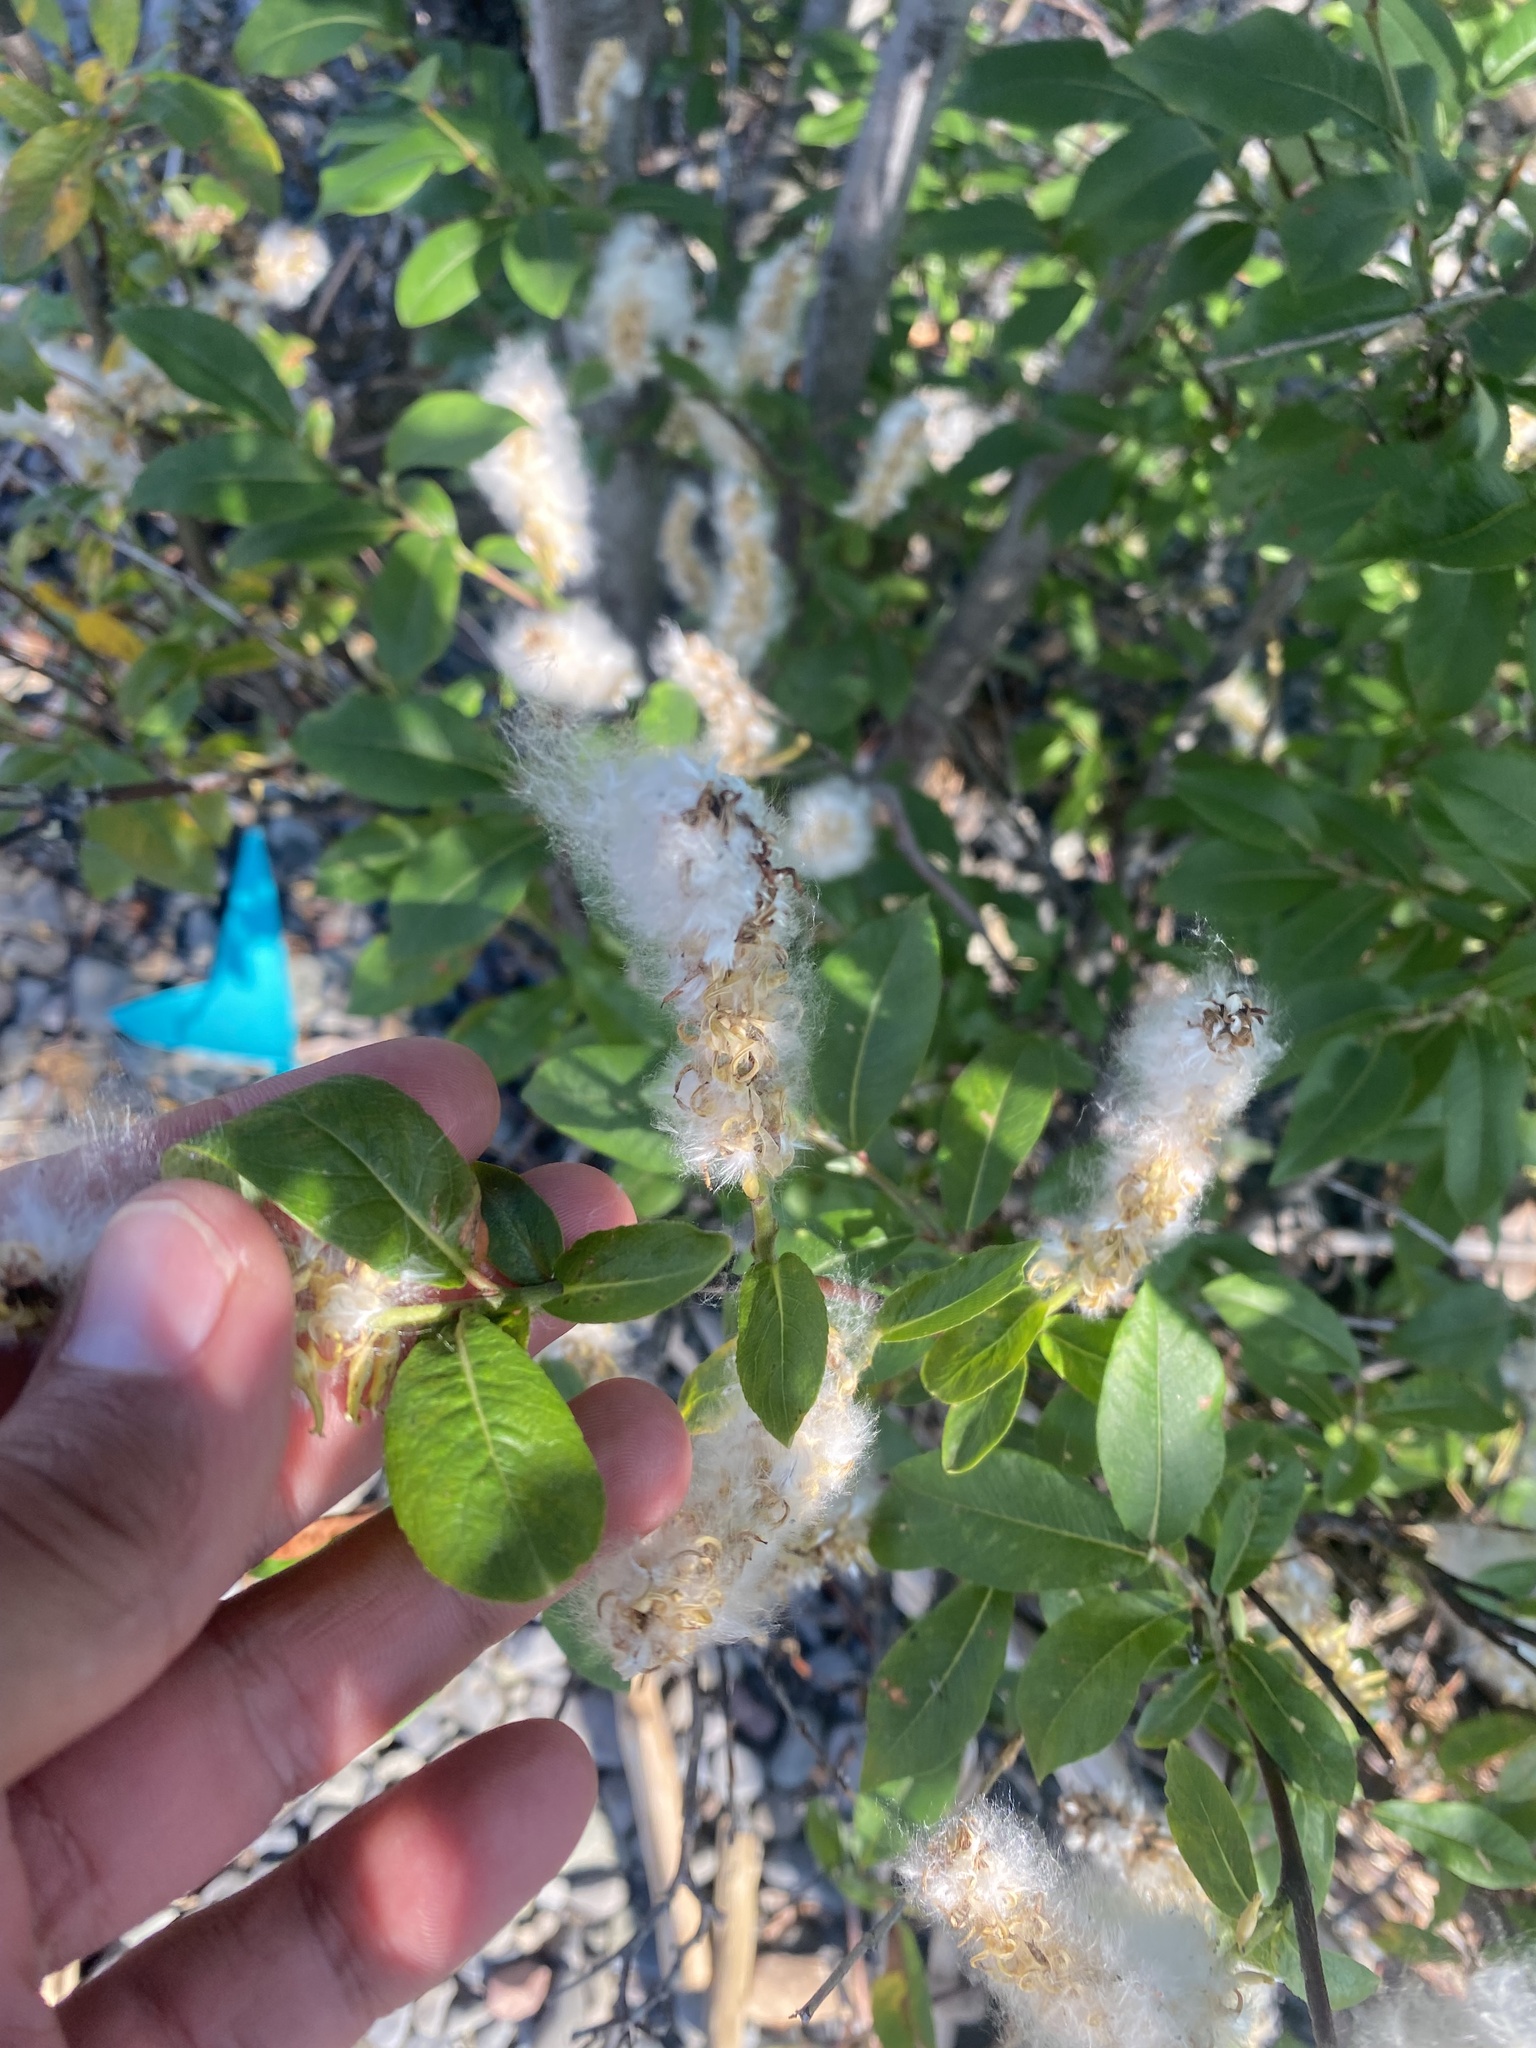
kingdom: Plantae
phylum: Tracheophyta
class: Magnoliopsida
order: Malpighiales
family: Salicaceae
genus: Salix
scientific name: Salix pulchra
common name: Diamond-leaved willow
